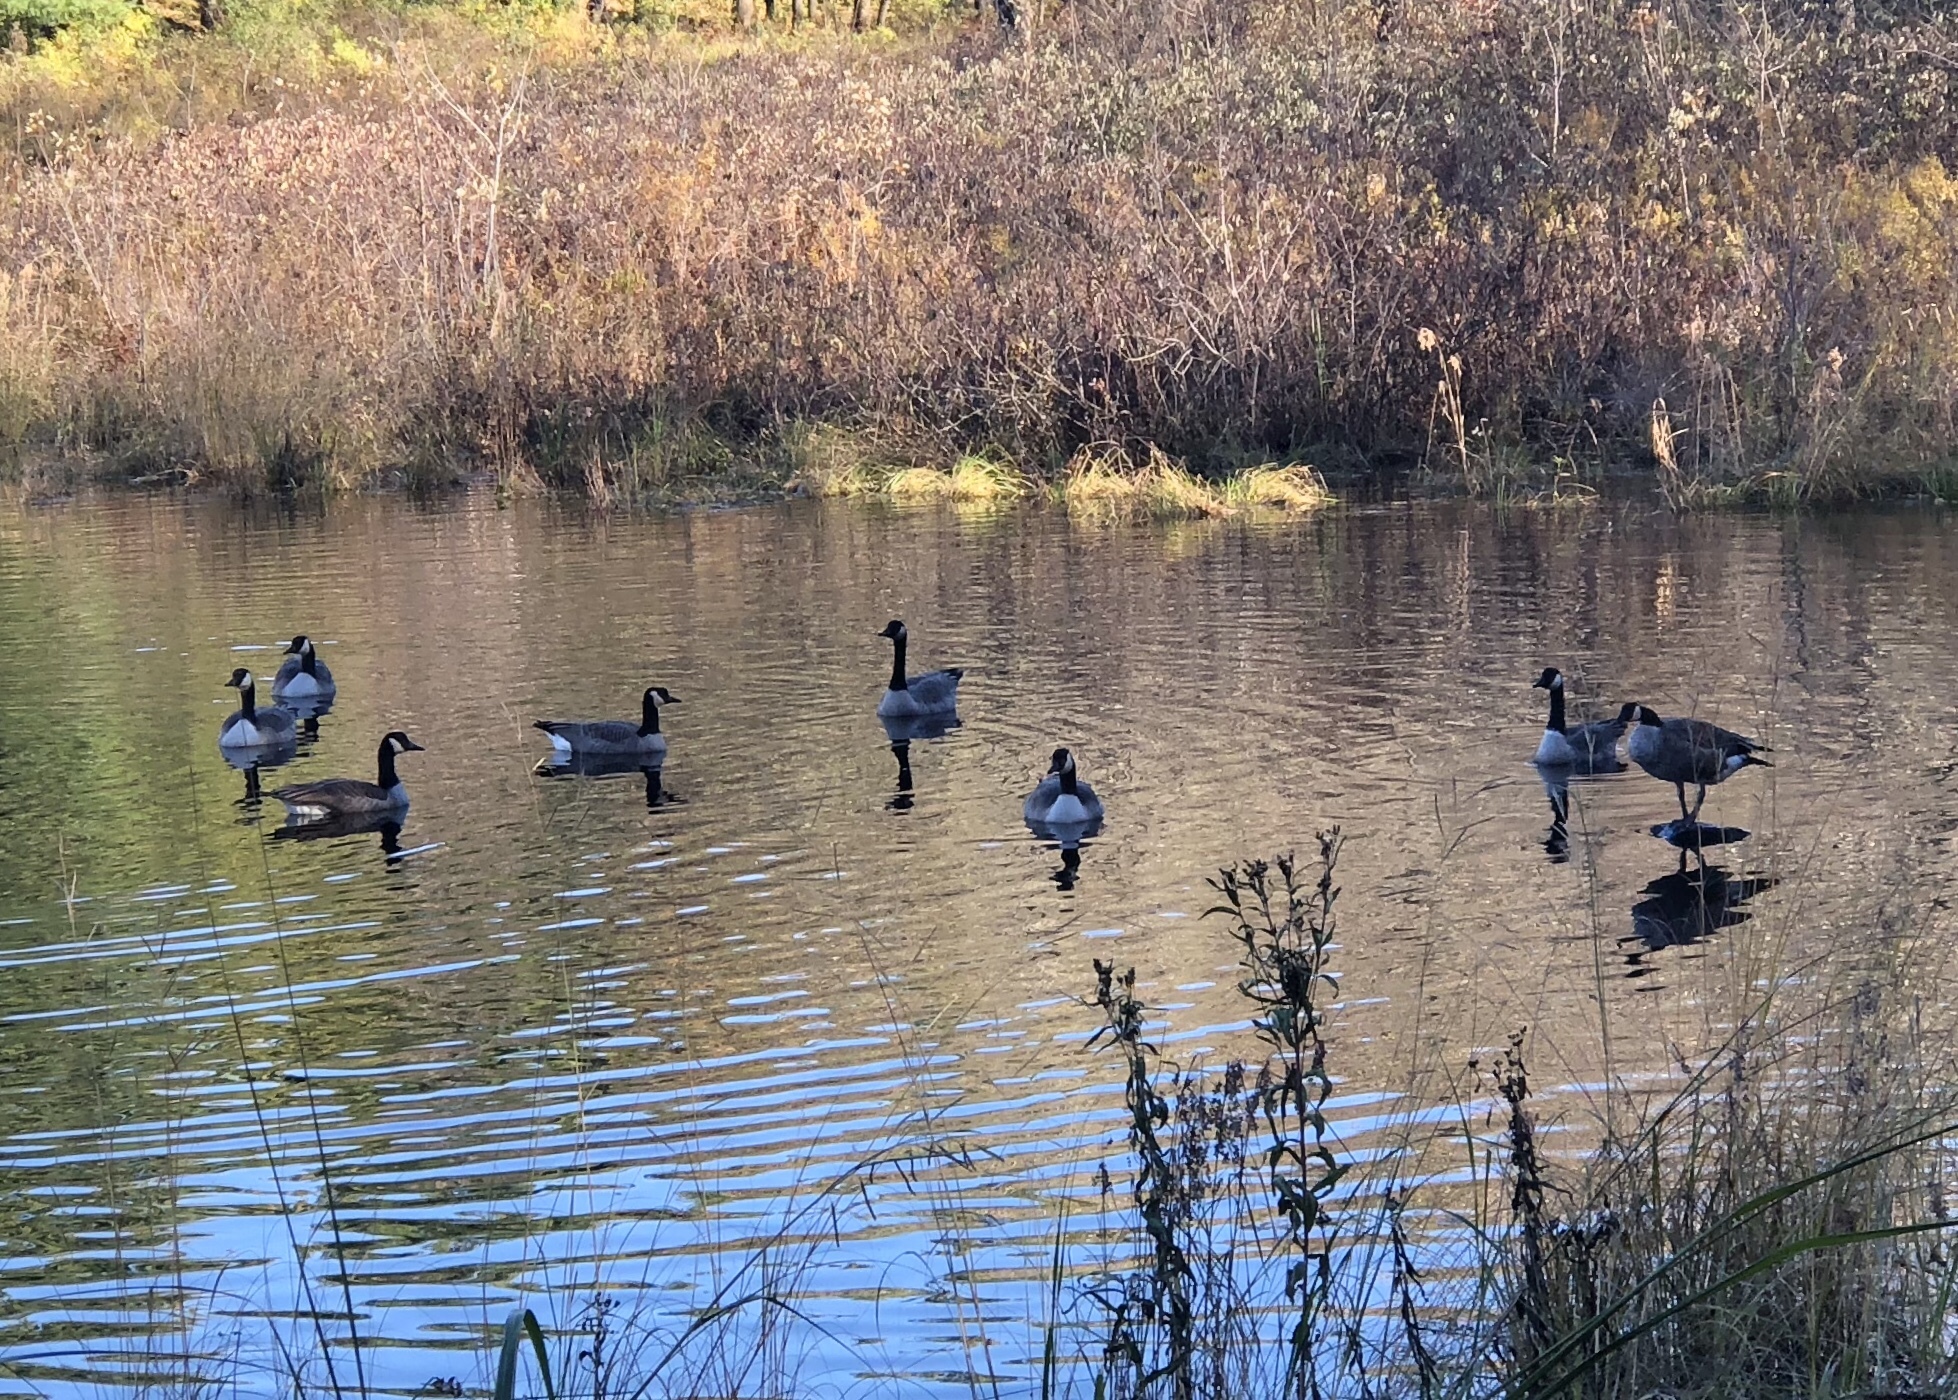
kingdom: Animalia
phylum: Chordata
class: Aves
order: Anseriformes
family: Anatidae
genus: Branta
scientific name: Branta canadensis
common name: Canada goose
